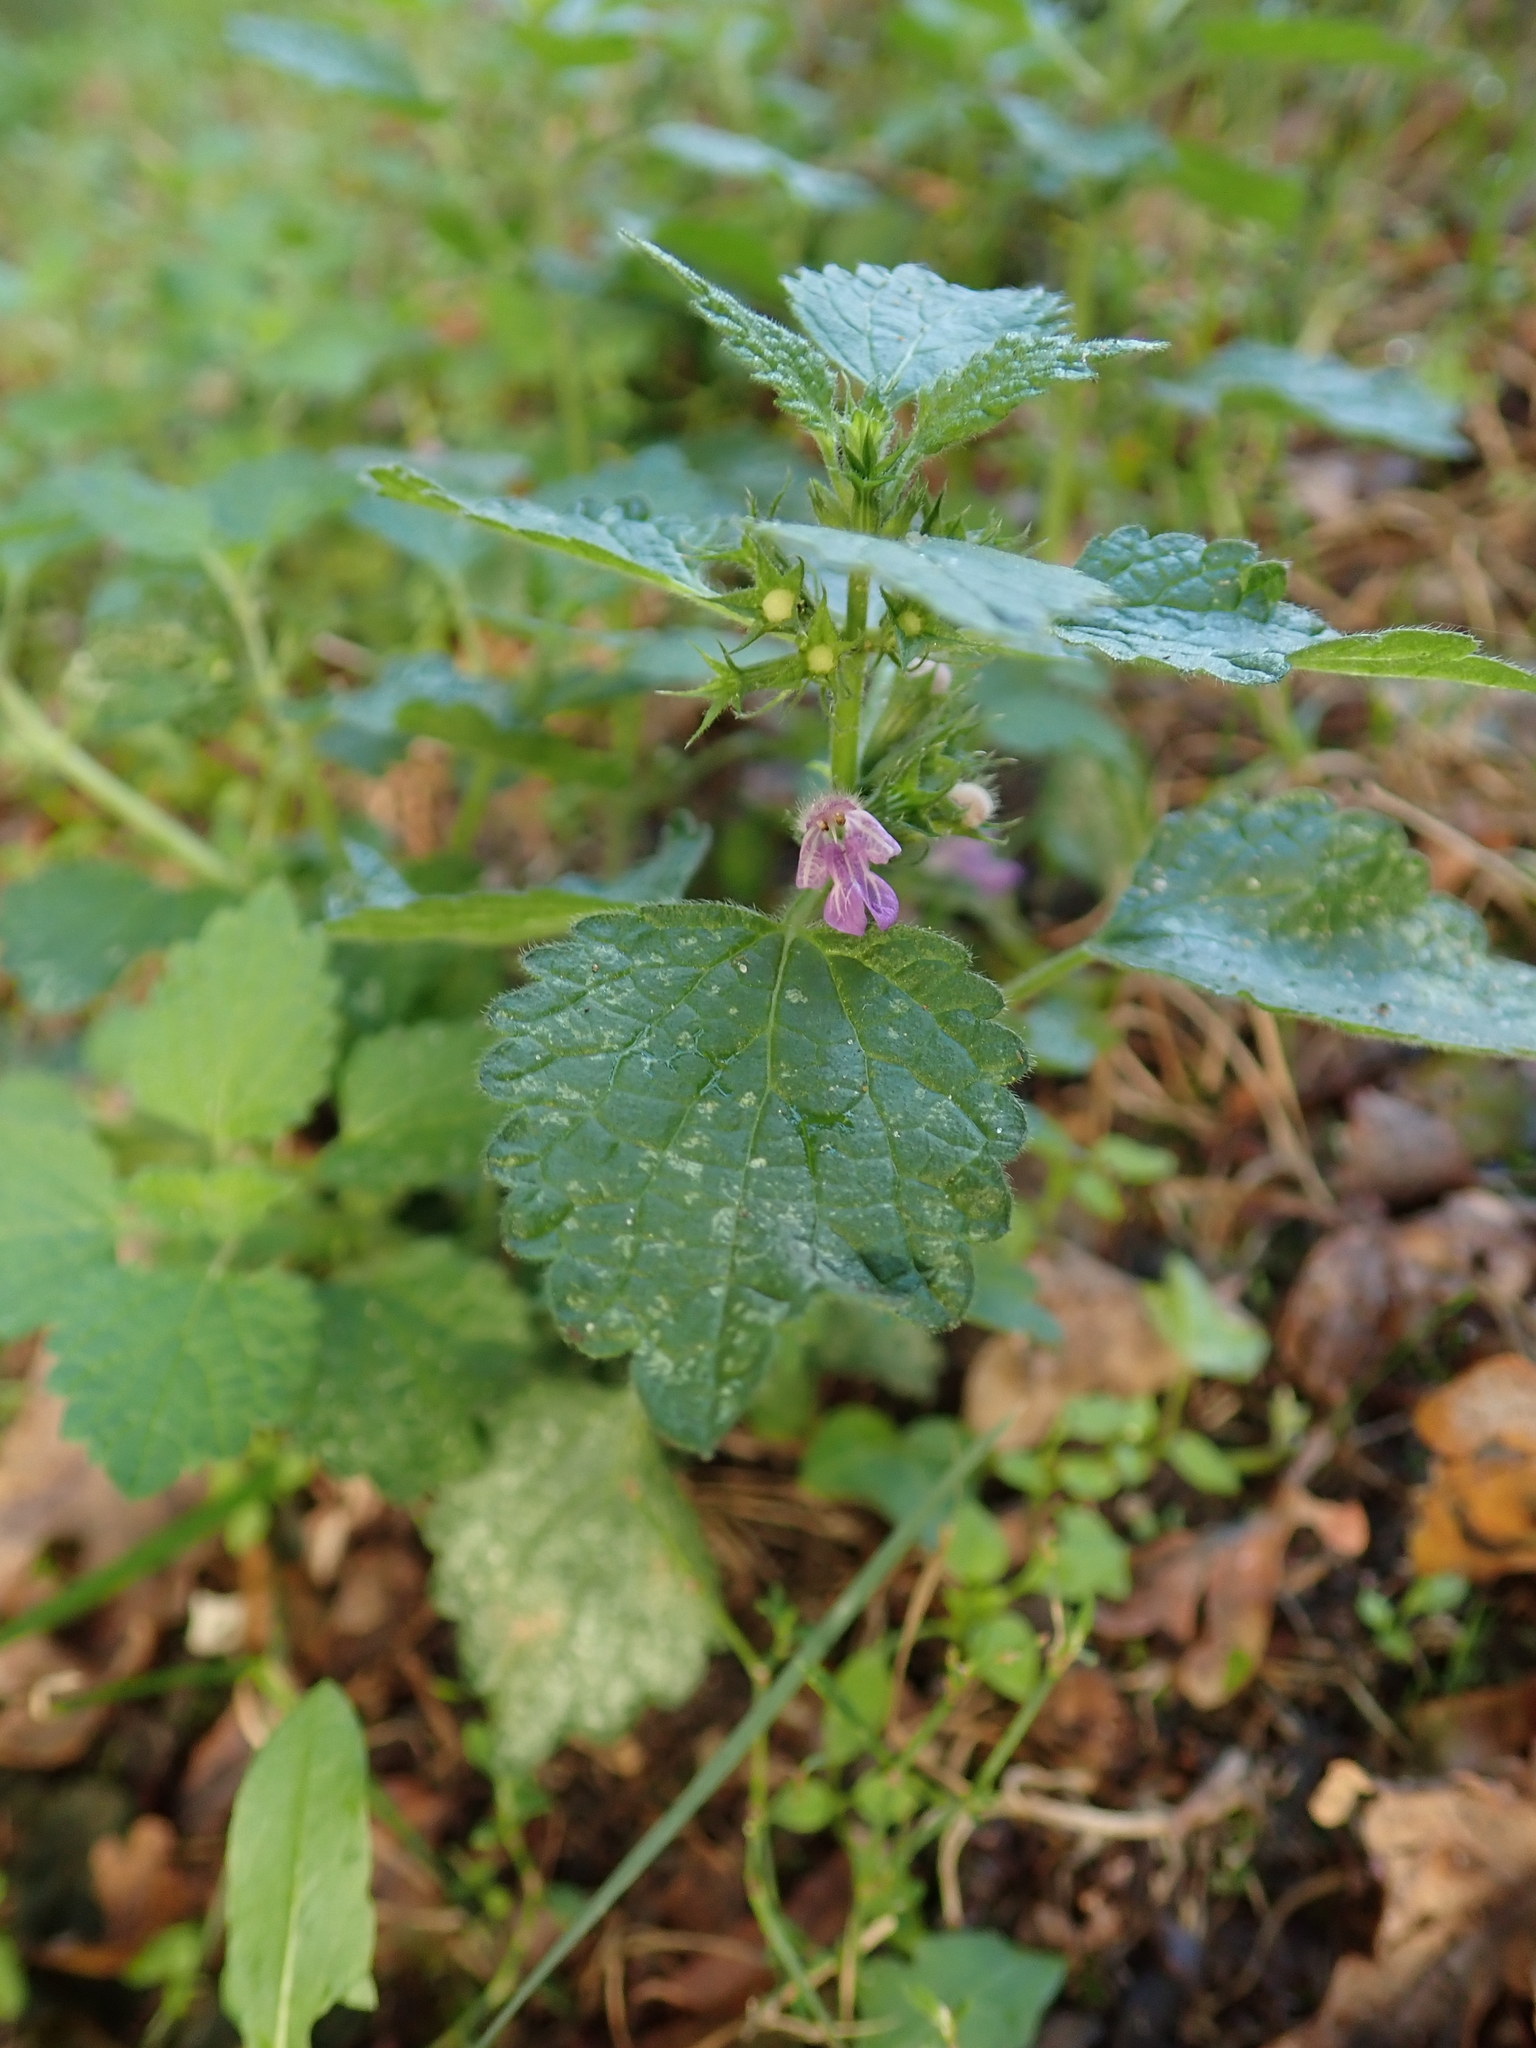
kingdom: Plantae
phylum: Tracheophyta
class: Magnoliopsida
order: Lamiales
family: Lamiaceae
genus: Ballota
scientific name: Ballota nigra
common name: Black horehound
